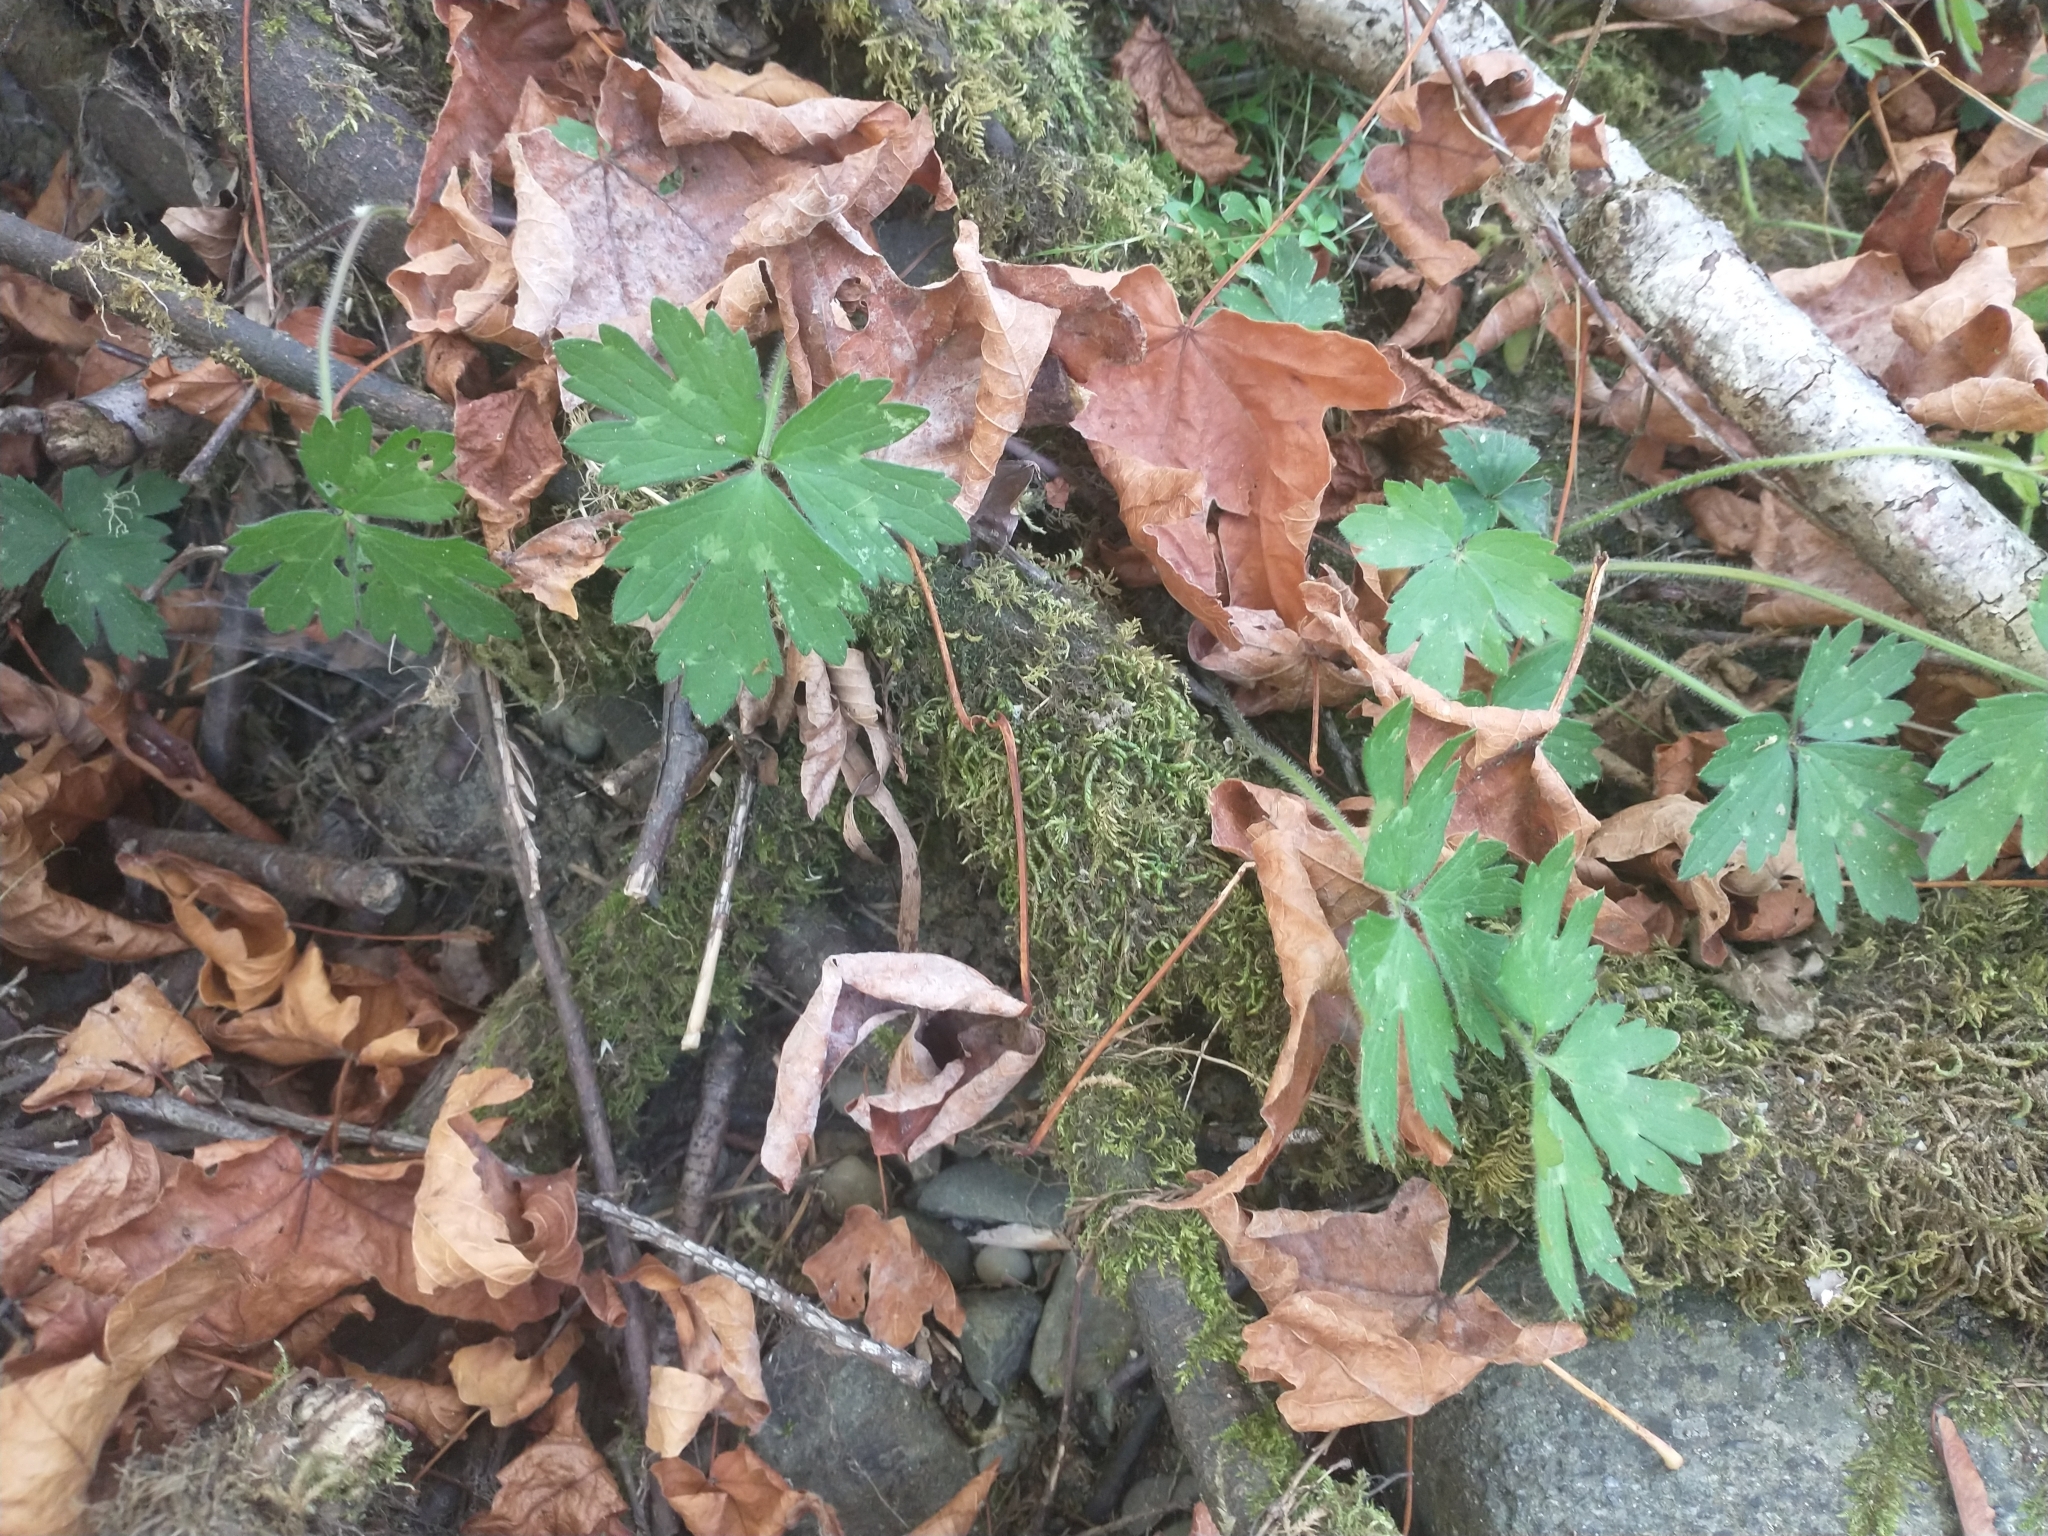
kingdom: Plantae
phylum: Tracheophyta
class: Magnoliopsida
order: Ranunculales
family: Ranunculaceae
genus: Ranunculus
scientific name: Ranunculus repens
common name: Creeping buttercup
